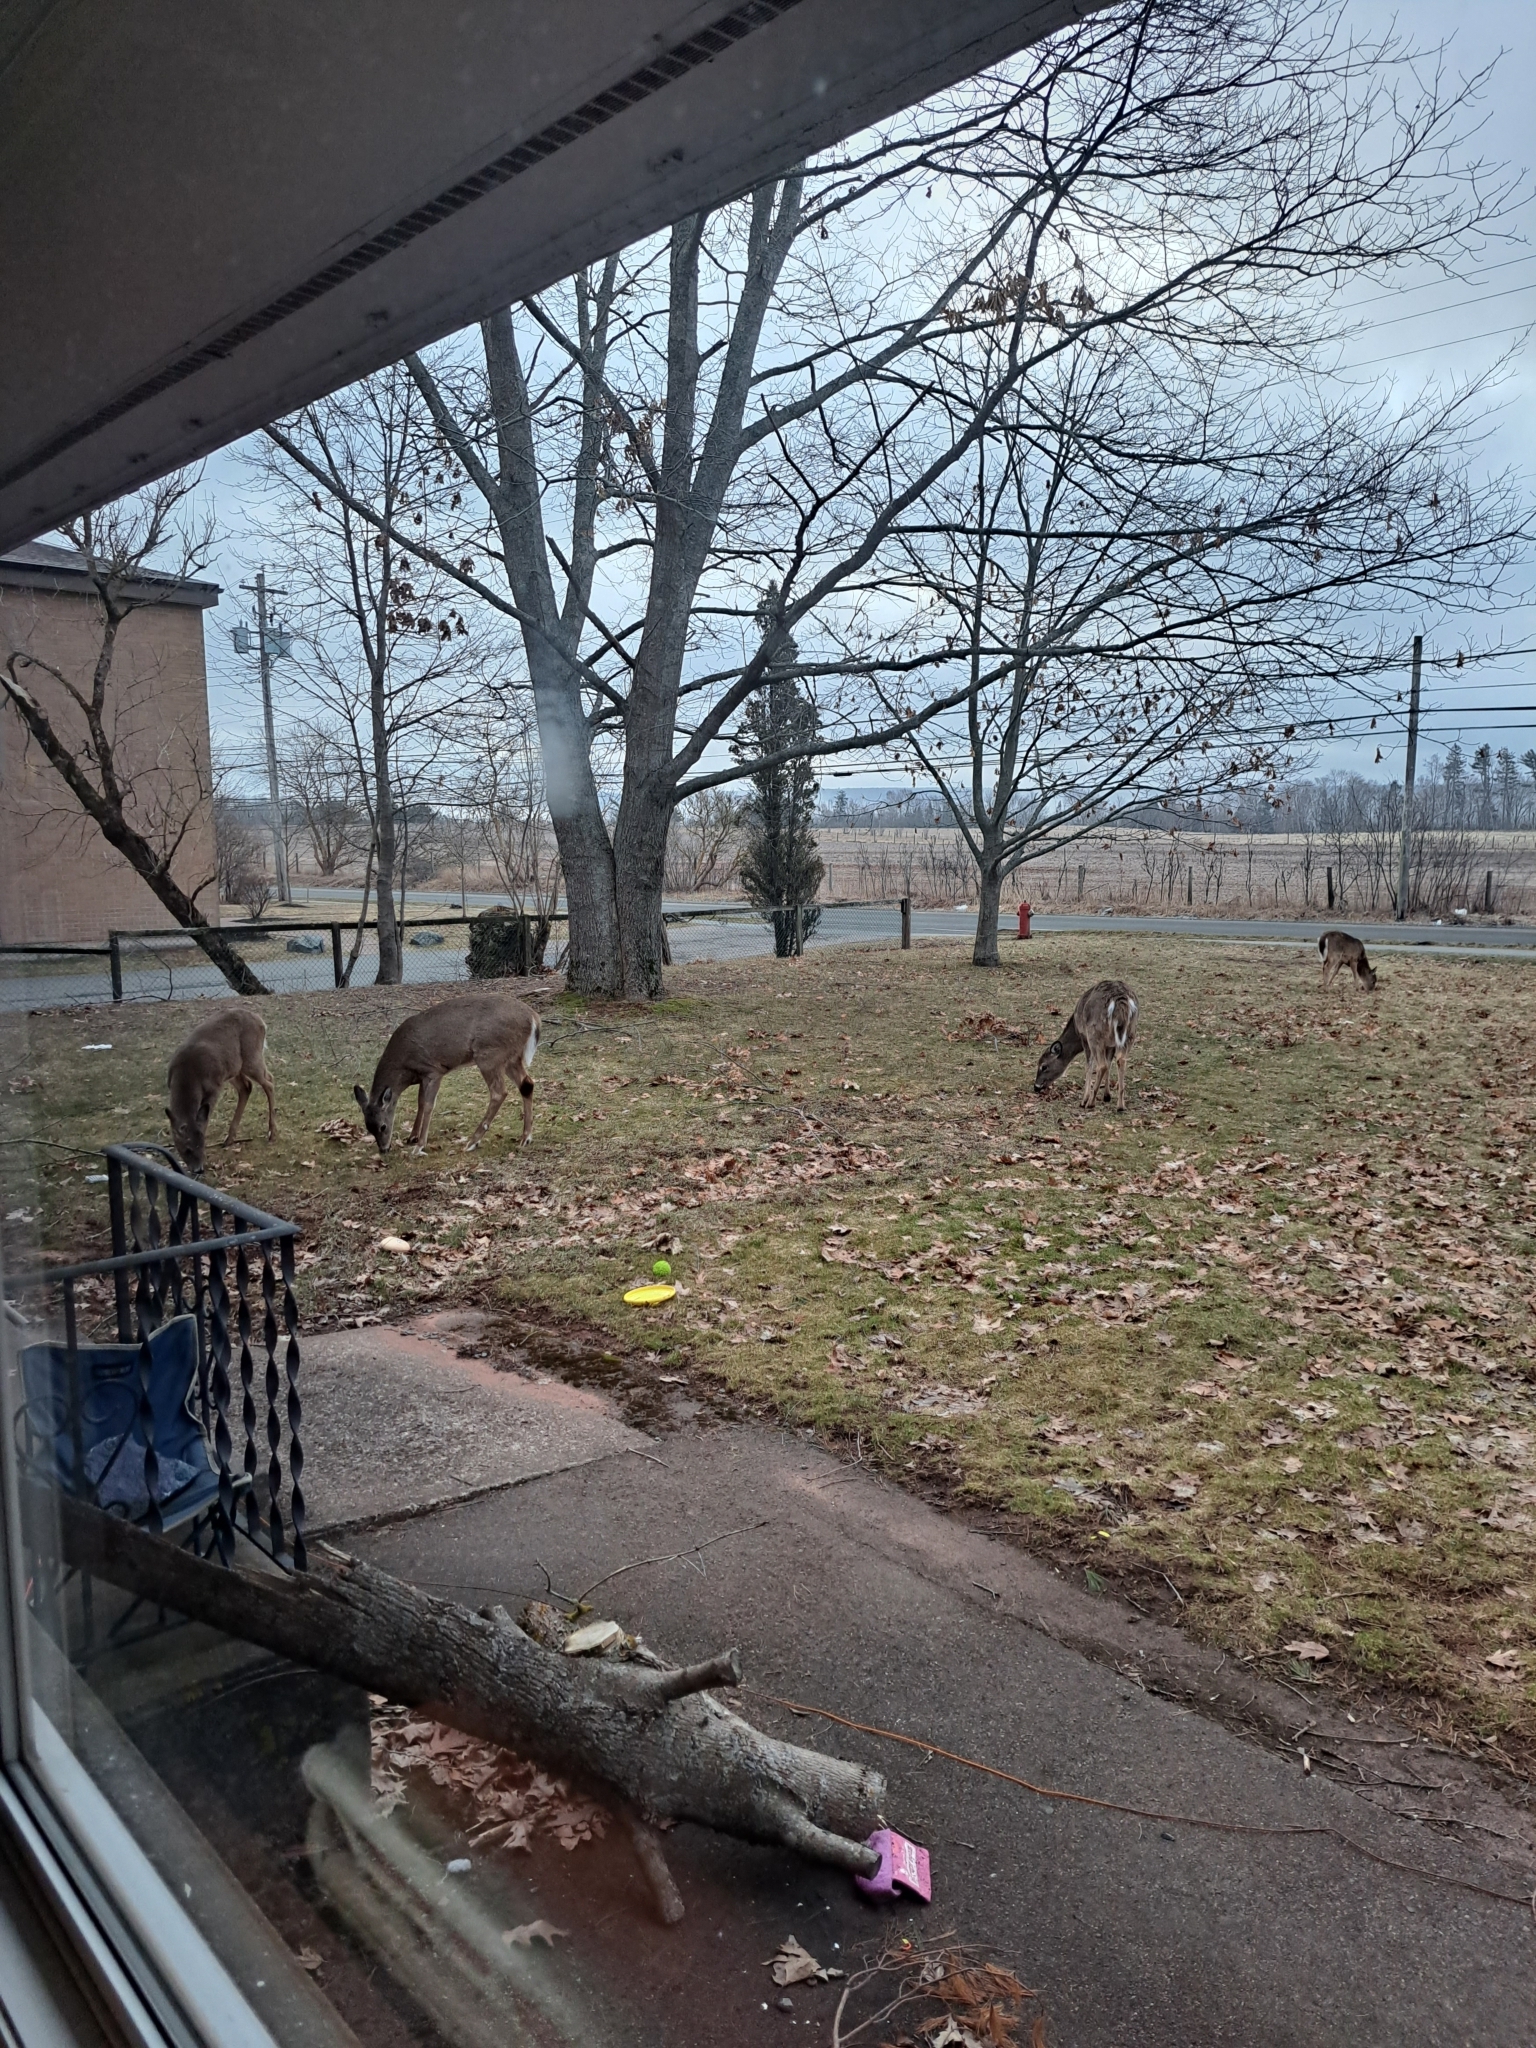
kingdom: Animalia
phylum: Chordata
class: Mammalia
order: Artiodactyla
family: Cervidae
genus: Odocoileus
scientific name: Odocoileus virginianus
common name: White-tailed deer
